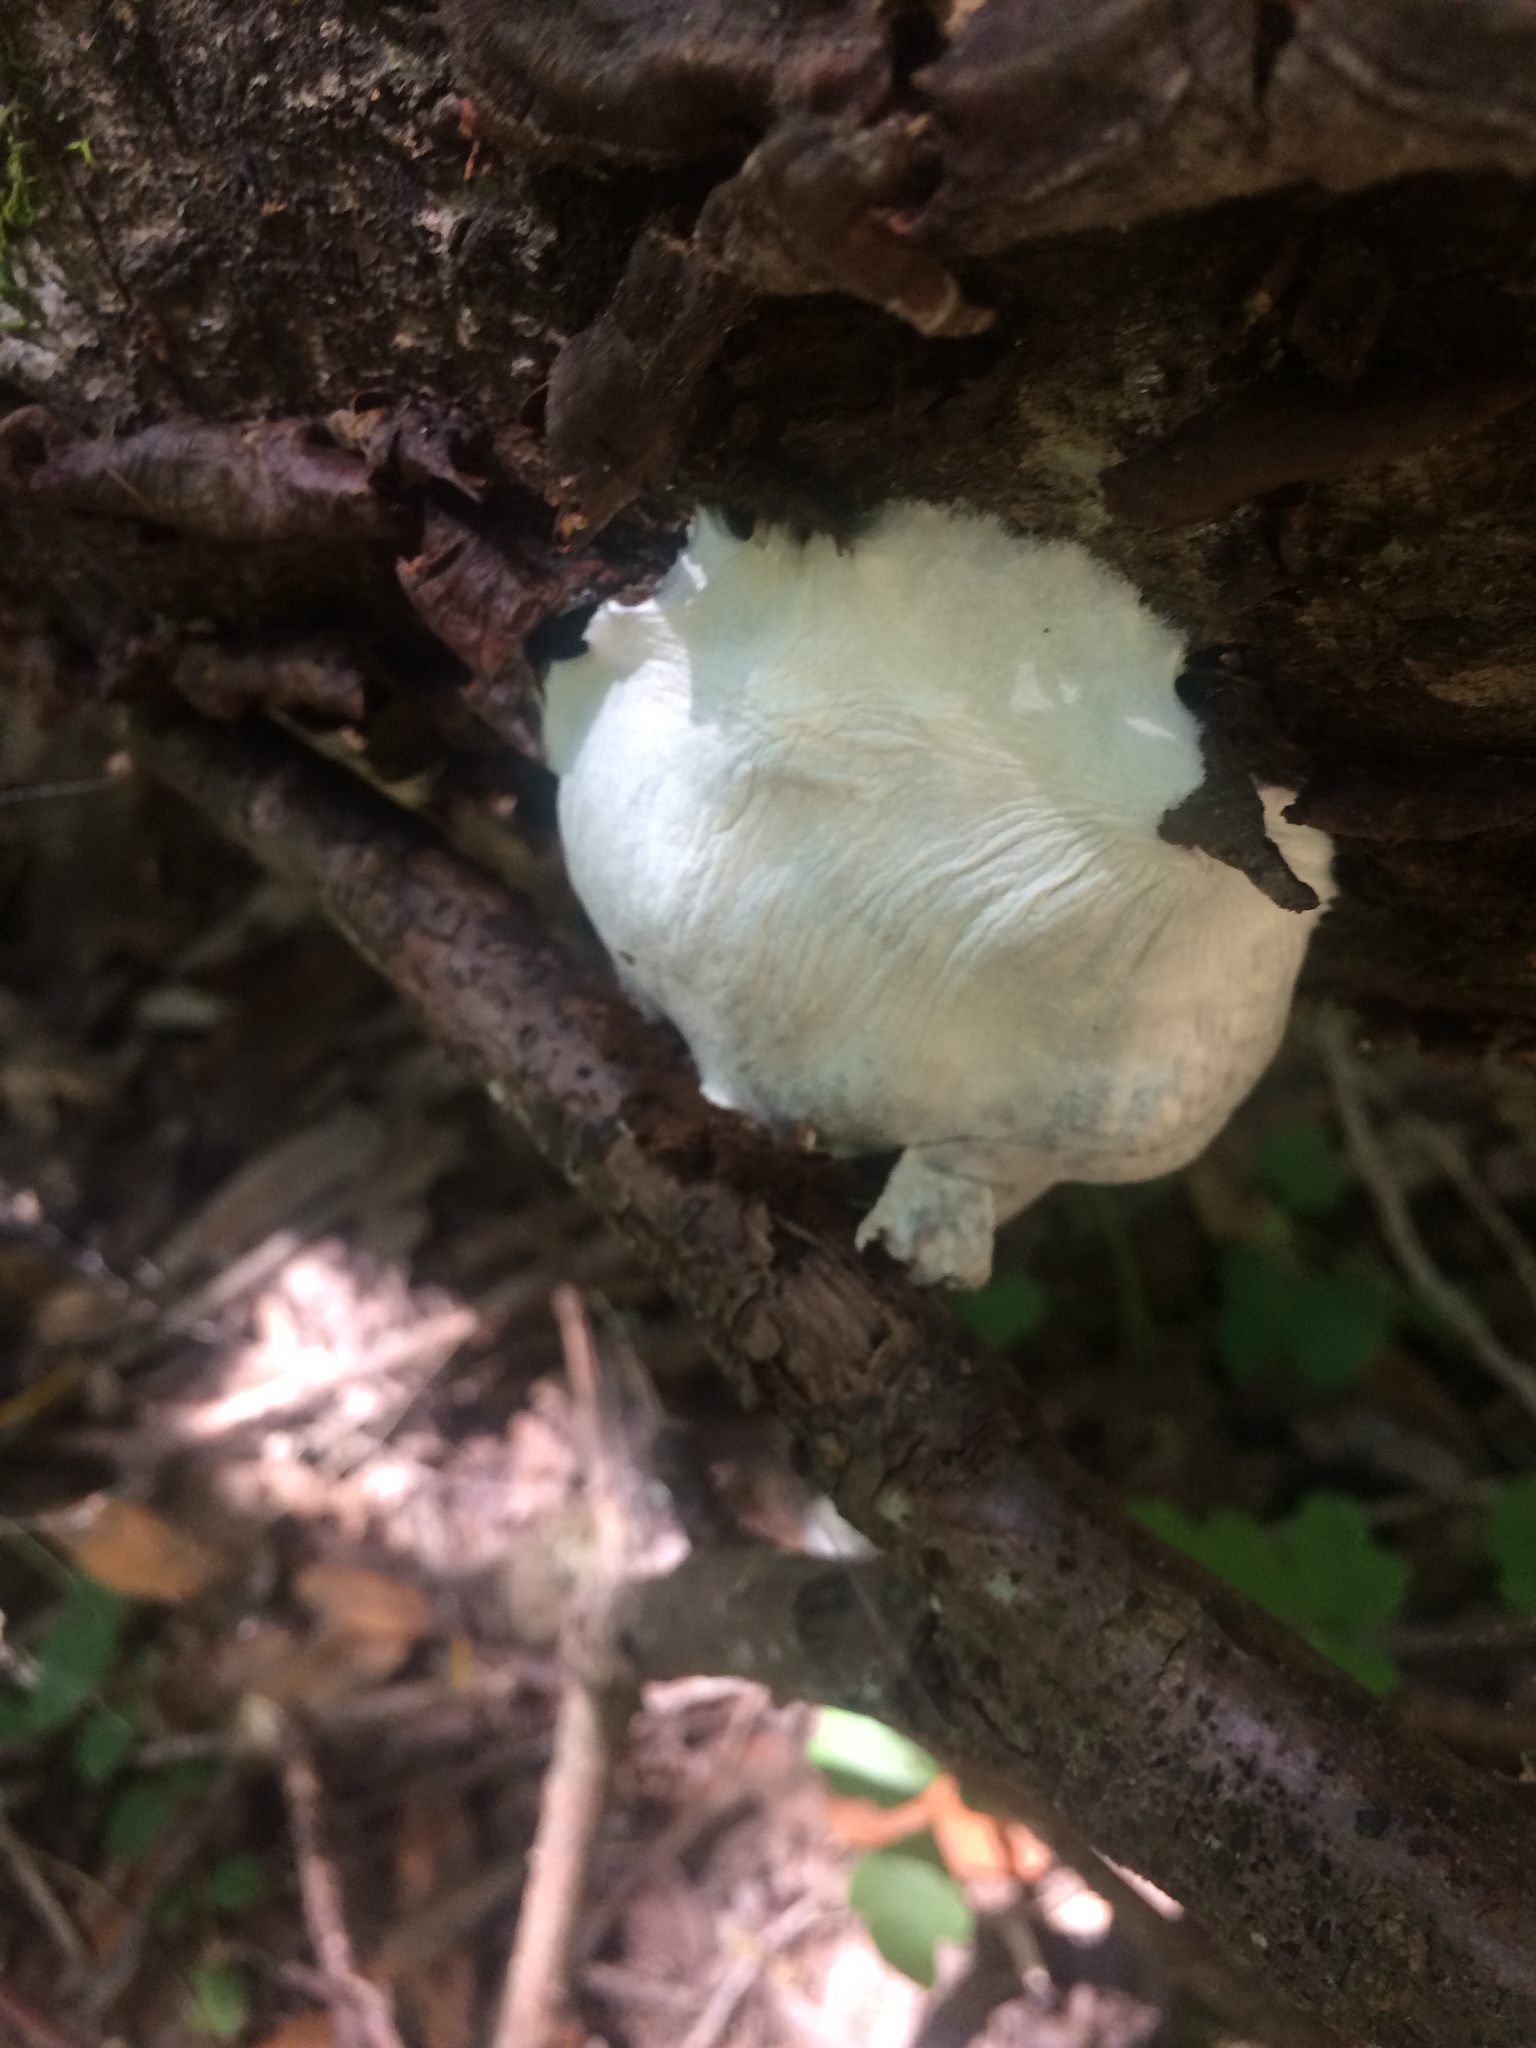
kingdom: Protozoa
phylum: Mycetozoa
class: Myxomycetes
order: Cribrariales
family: Tubiferaceae
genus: Reticularia
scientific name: Reticularia lycoperdon
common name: False puffball
